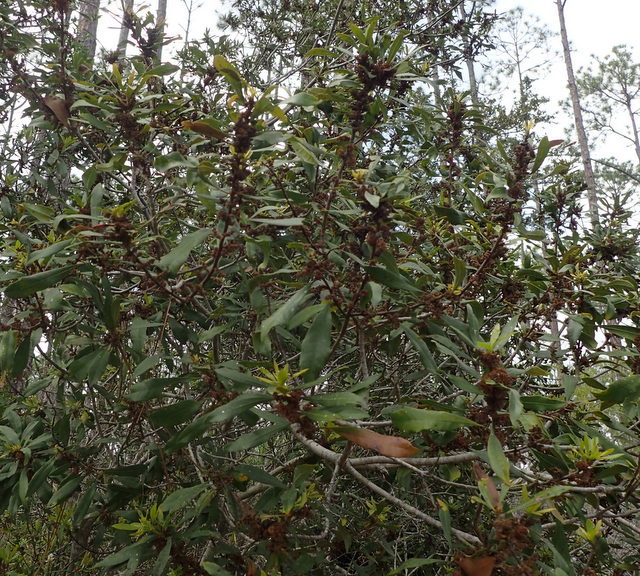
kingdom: Plantae
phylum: Tracheophyta
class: Magnoliopsida
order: Fagales
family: Myricaceae
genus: Morella
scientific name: Morella cerifera
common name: Wax myrtle
